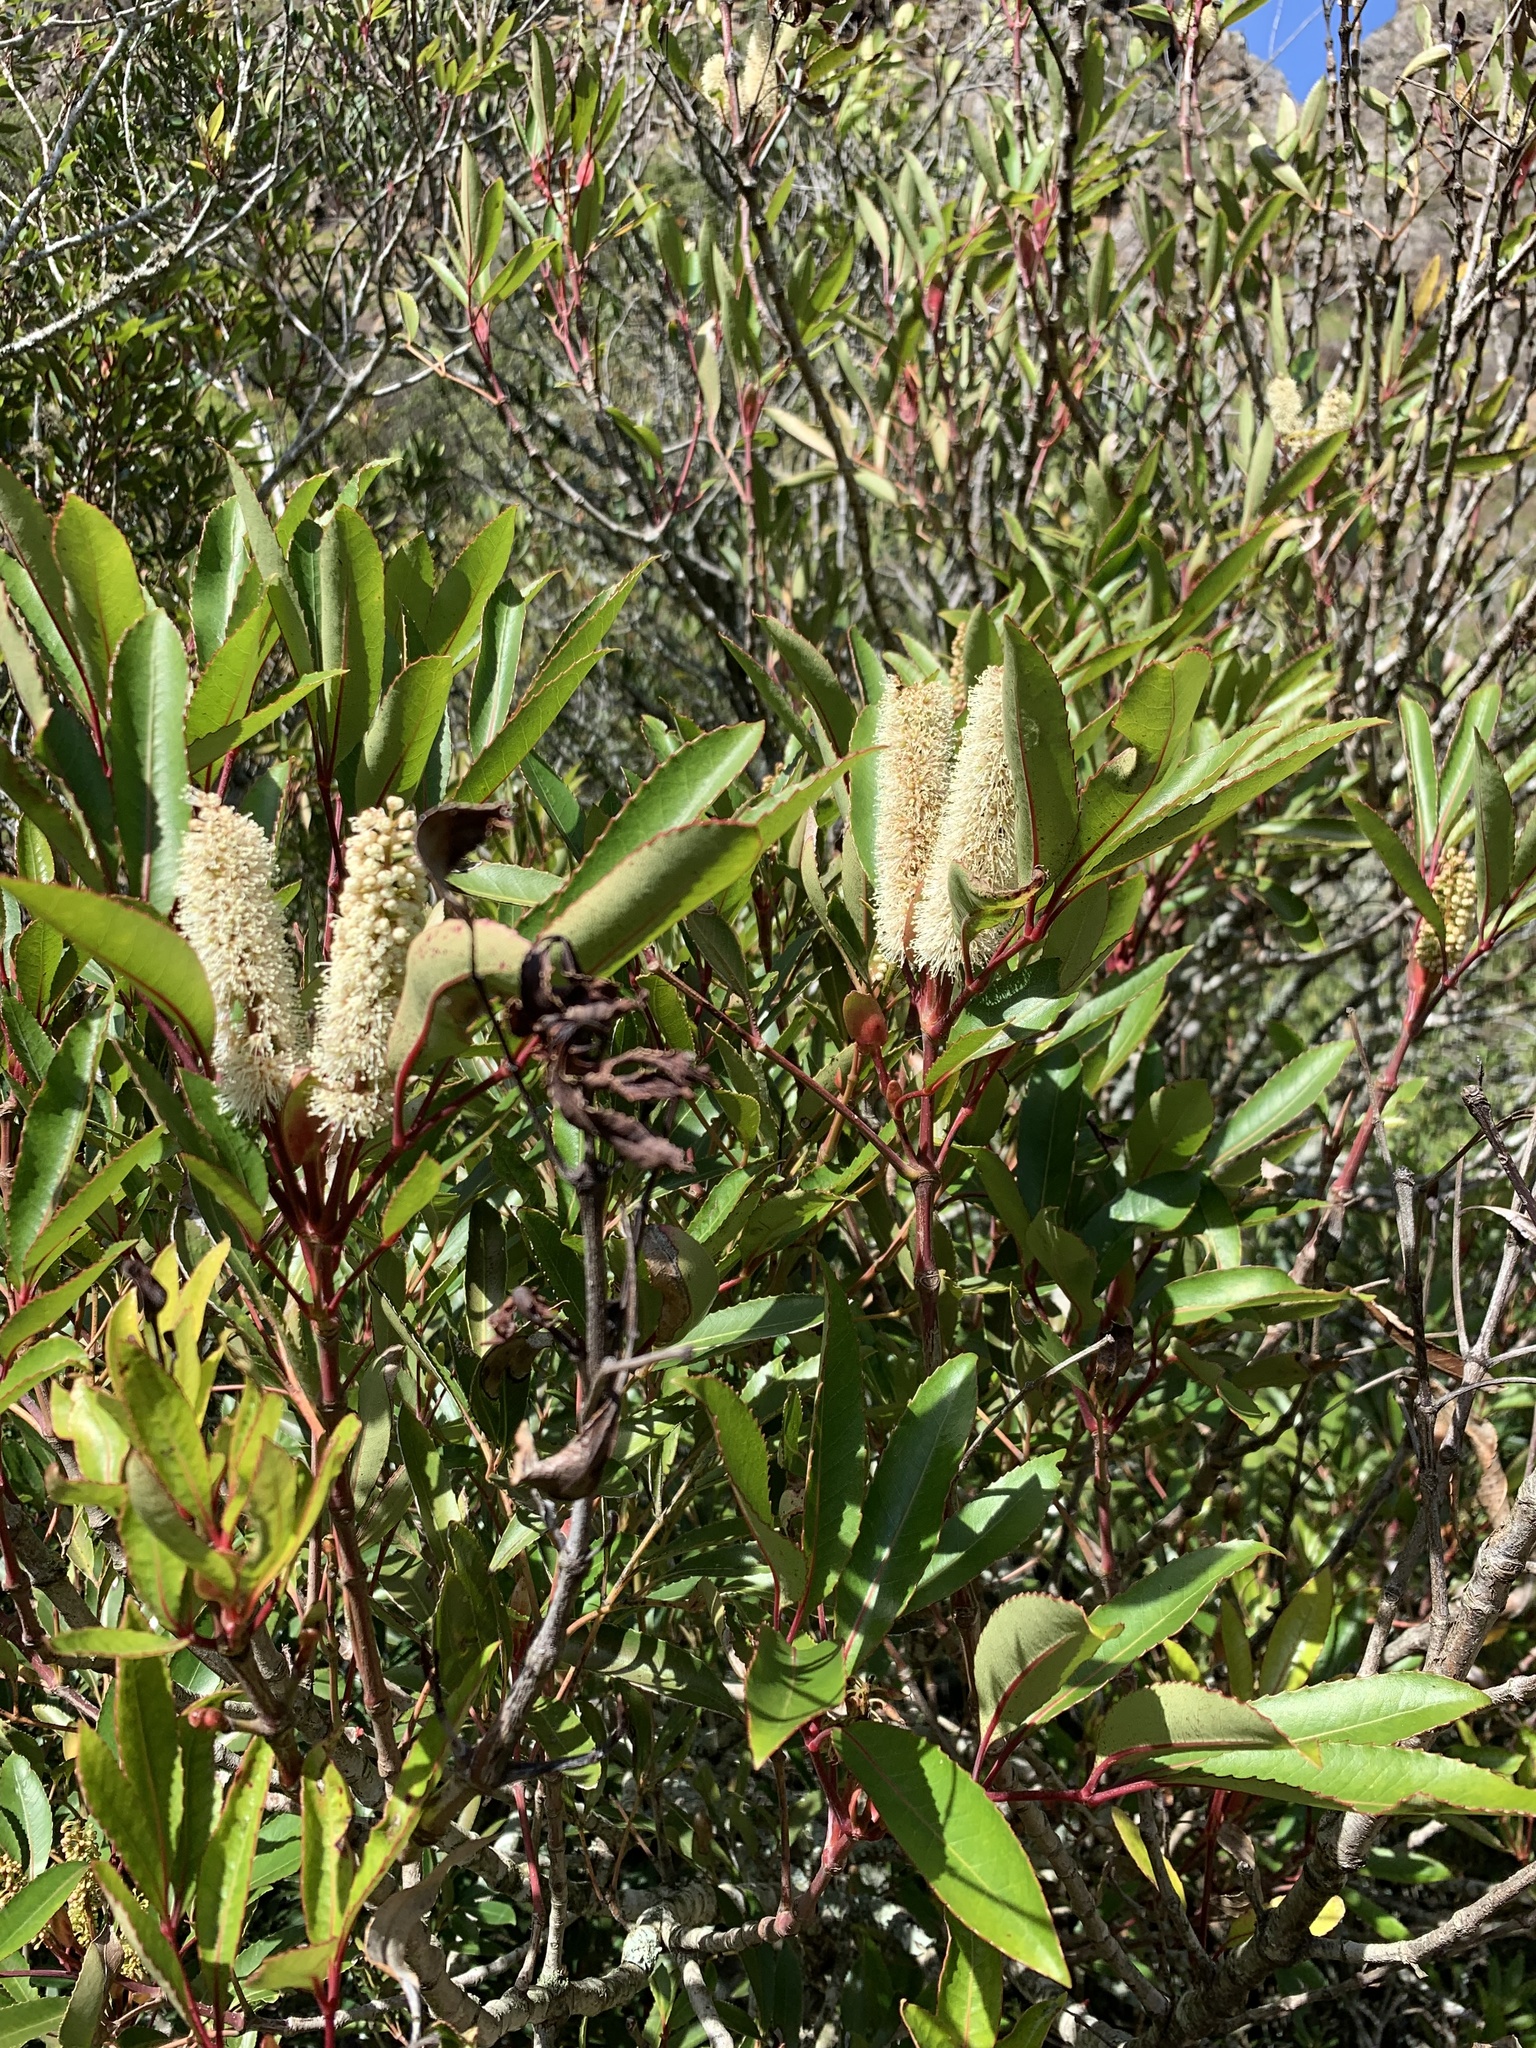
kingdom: Plantae
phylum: Tracheophyta
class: Magnoliopsida
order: Oxalidales
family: Cunoniaceae
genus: Cunonia
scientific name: Cunonia capensis
